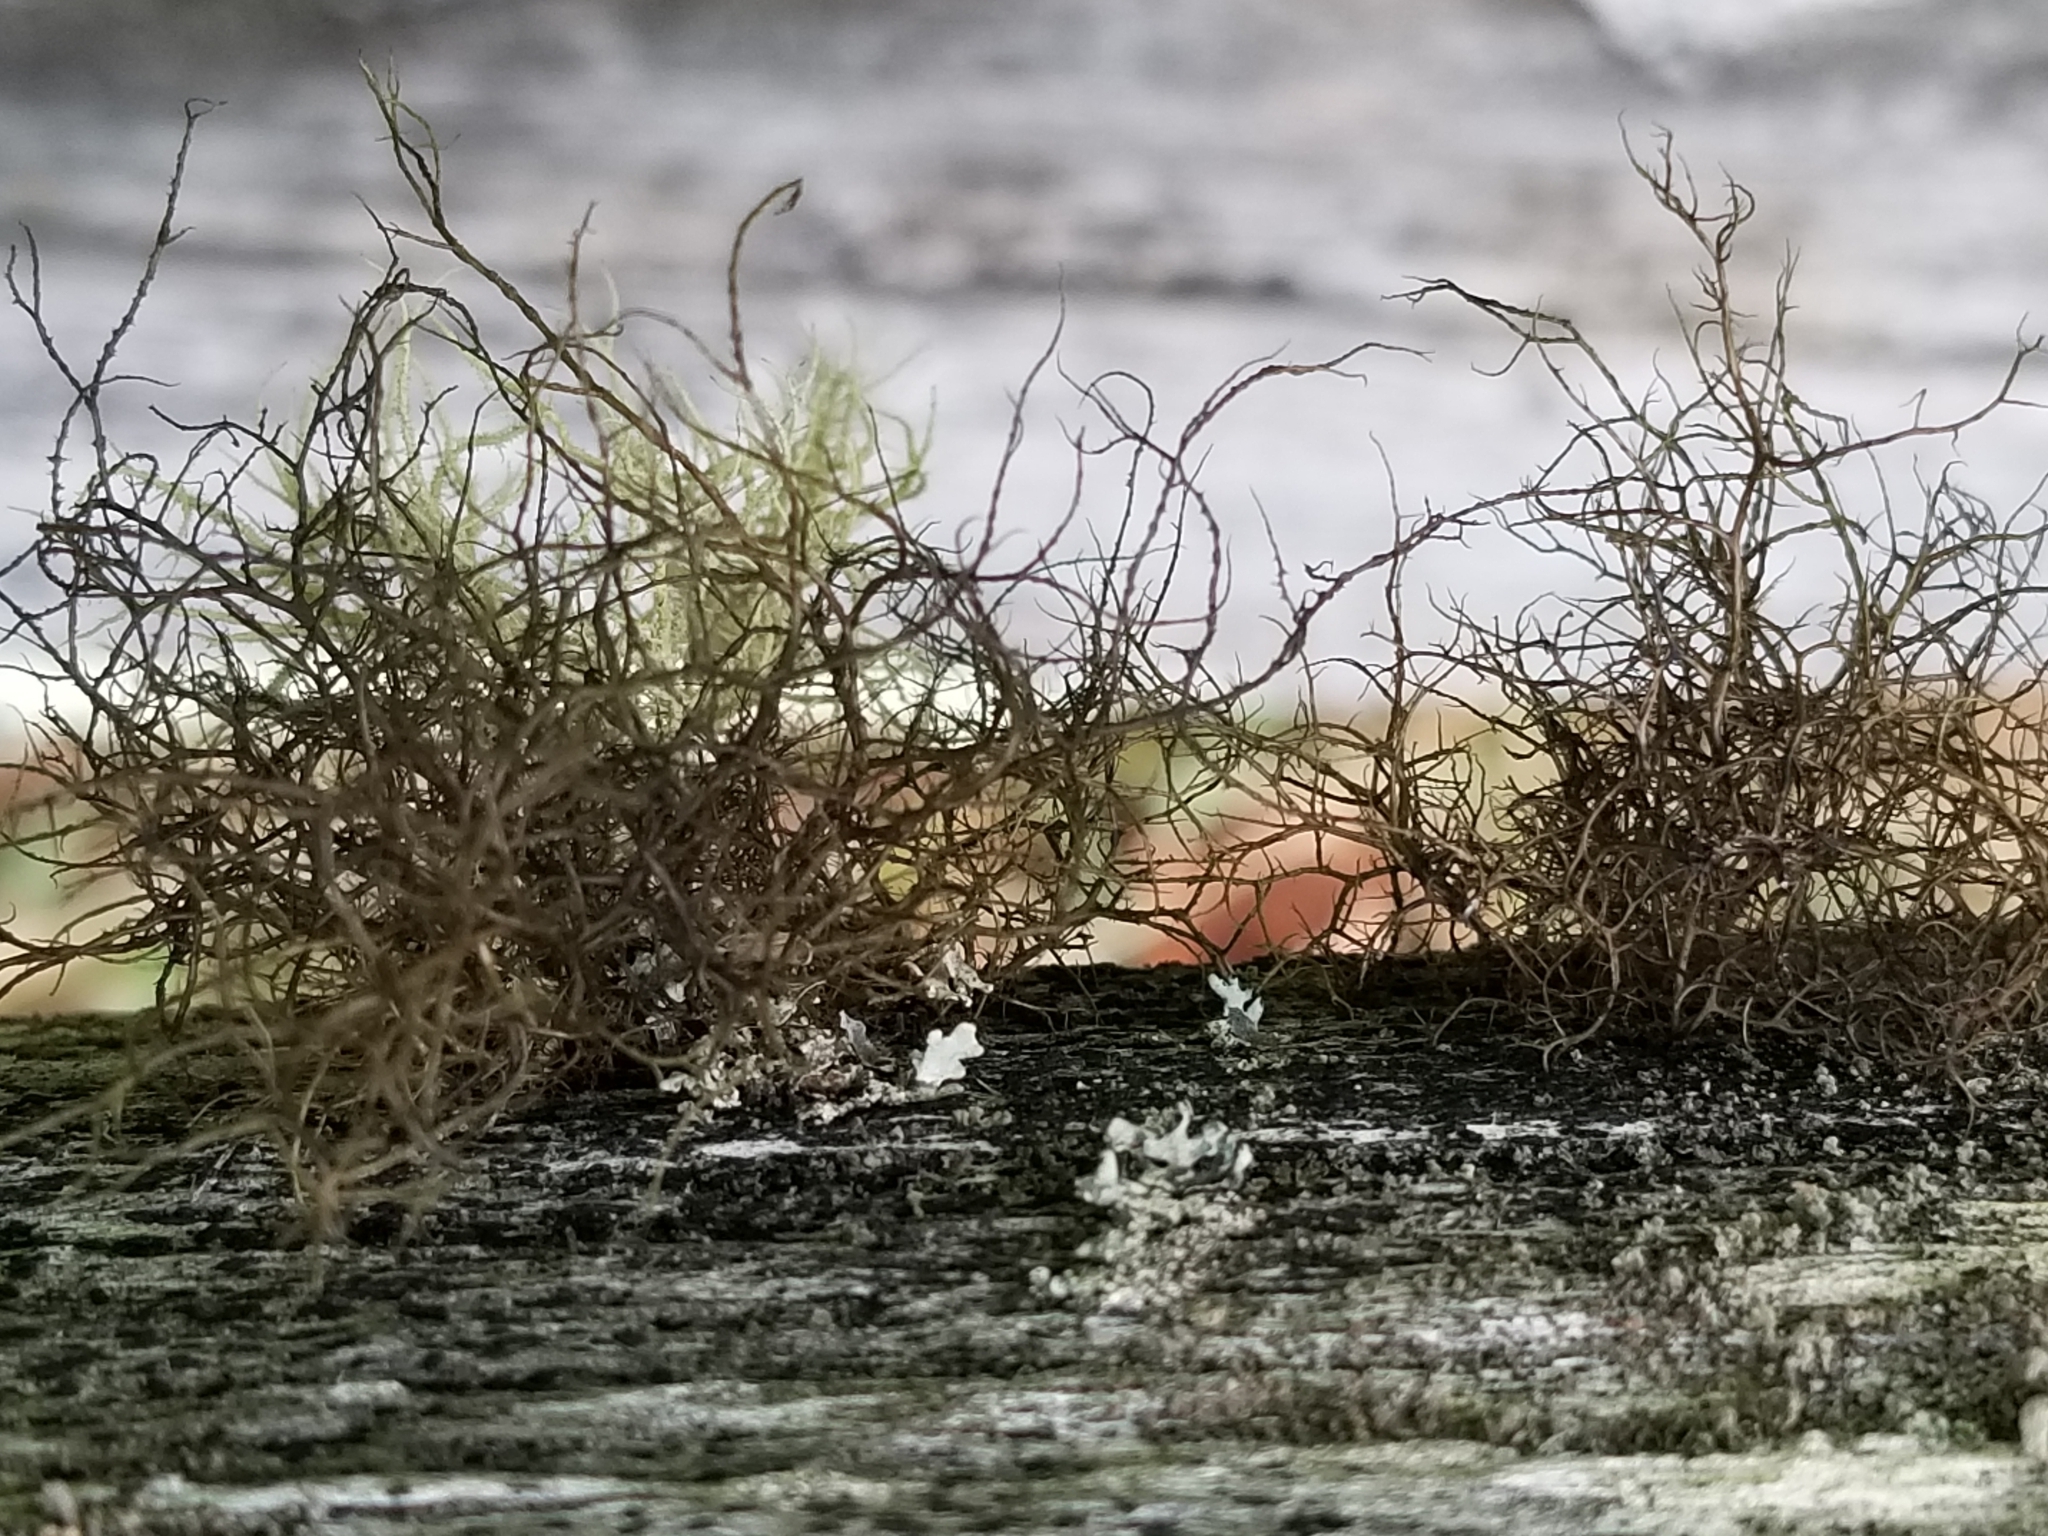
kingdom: Fungi
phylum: Ascomycota
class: Lecanoromycetes
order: Lecanorales
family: Parmeliaceae
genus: Bryoria
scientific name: Bryoria furcellata
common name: Forked hair-lichen
